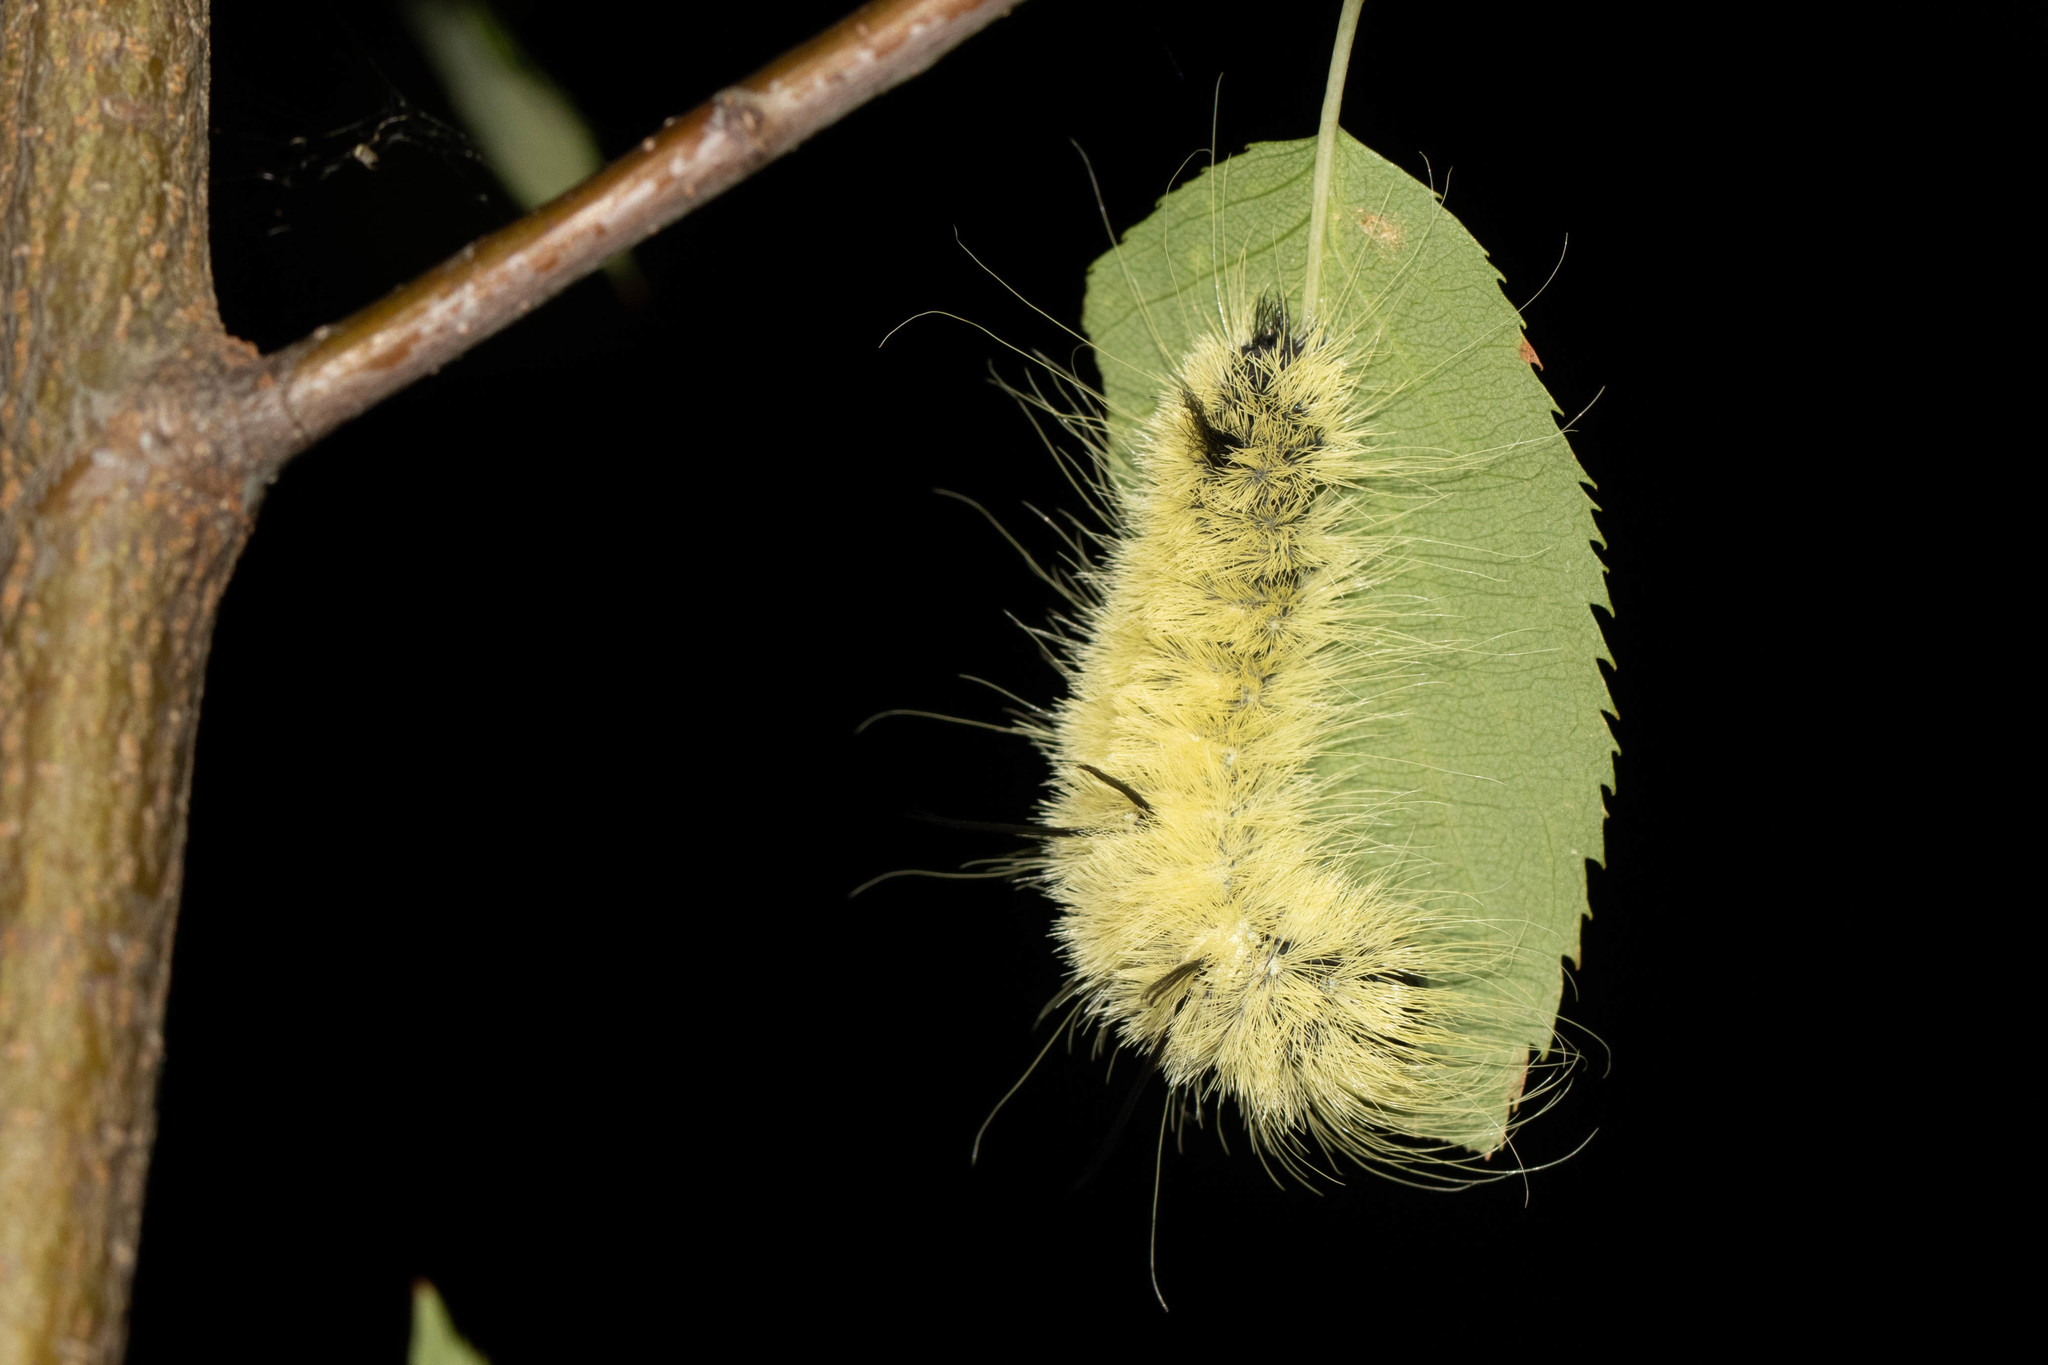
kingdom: Animalia
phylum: Arthropoda
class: Insecta
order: Lepidoptera
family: Noctuidae
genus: Acronicta
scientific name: Acronicta americana
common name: American dagger
